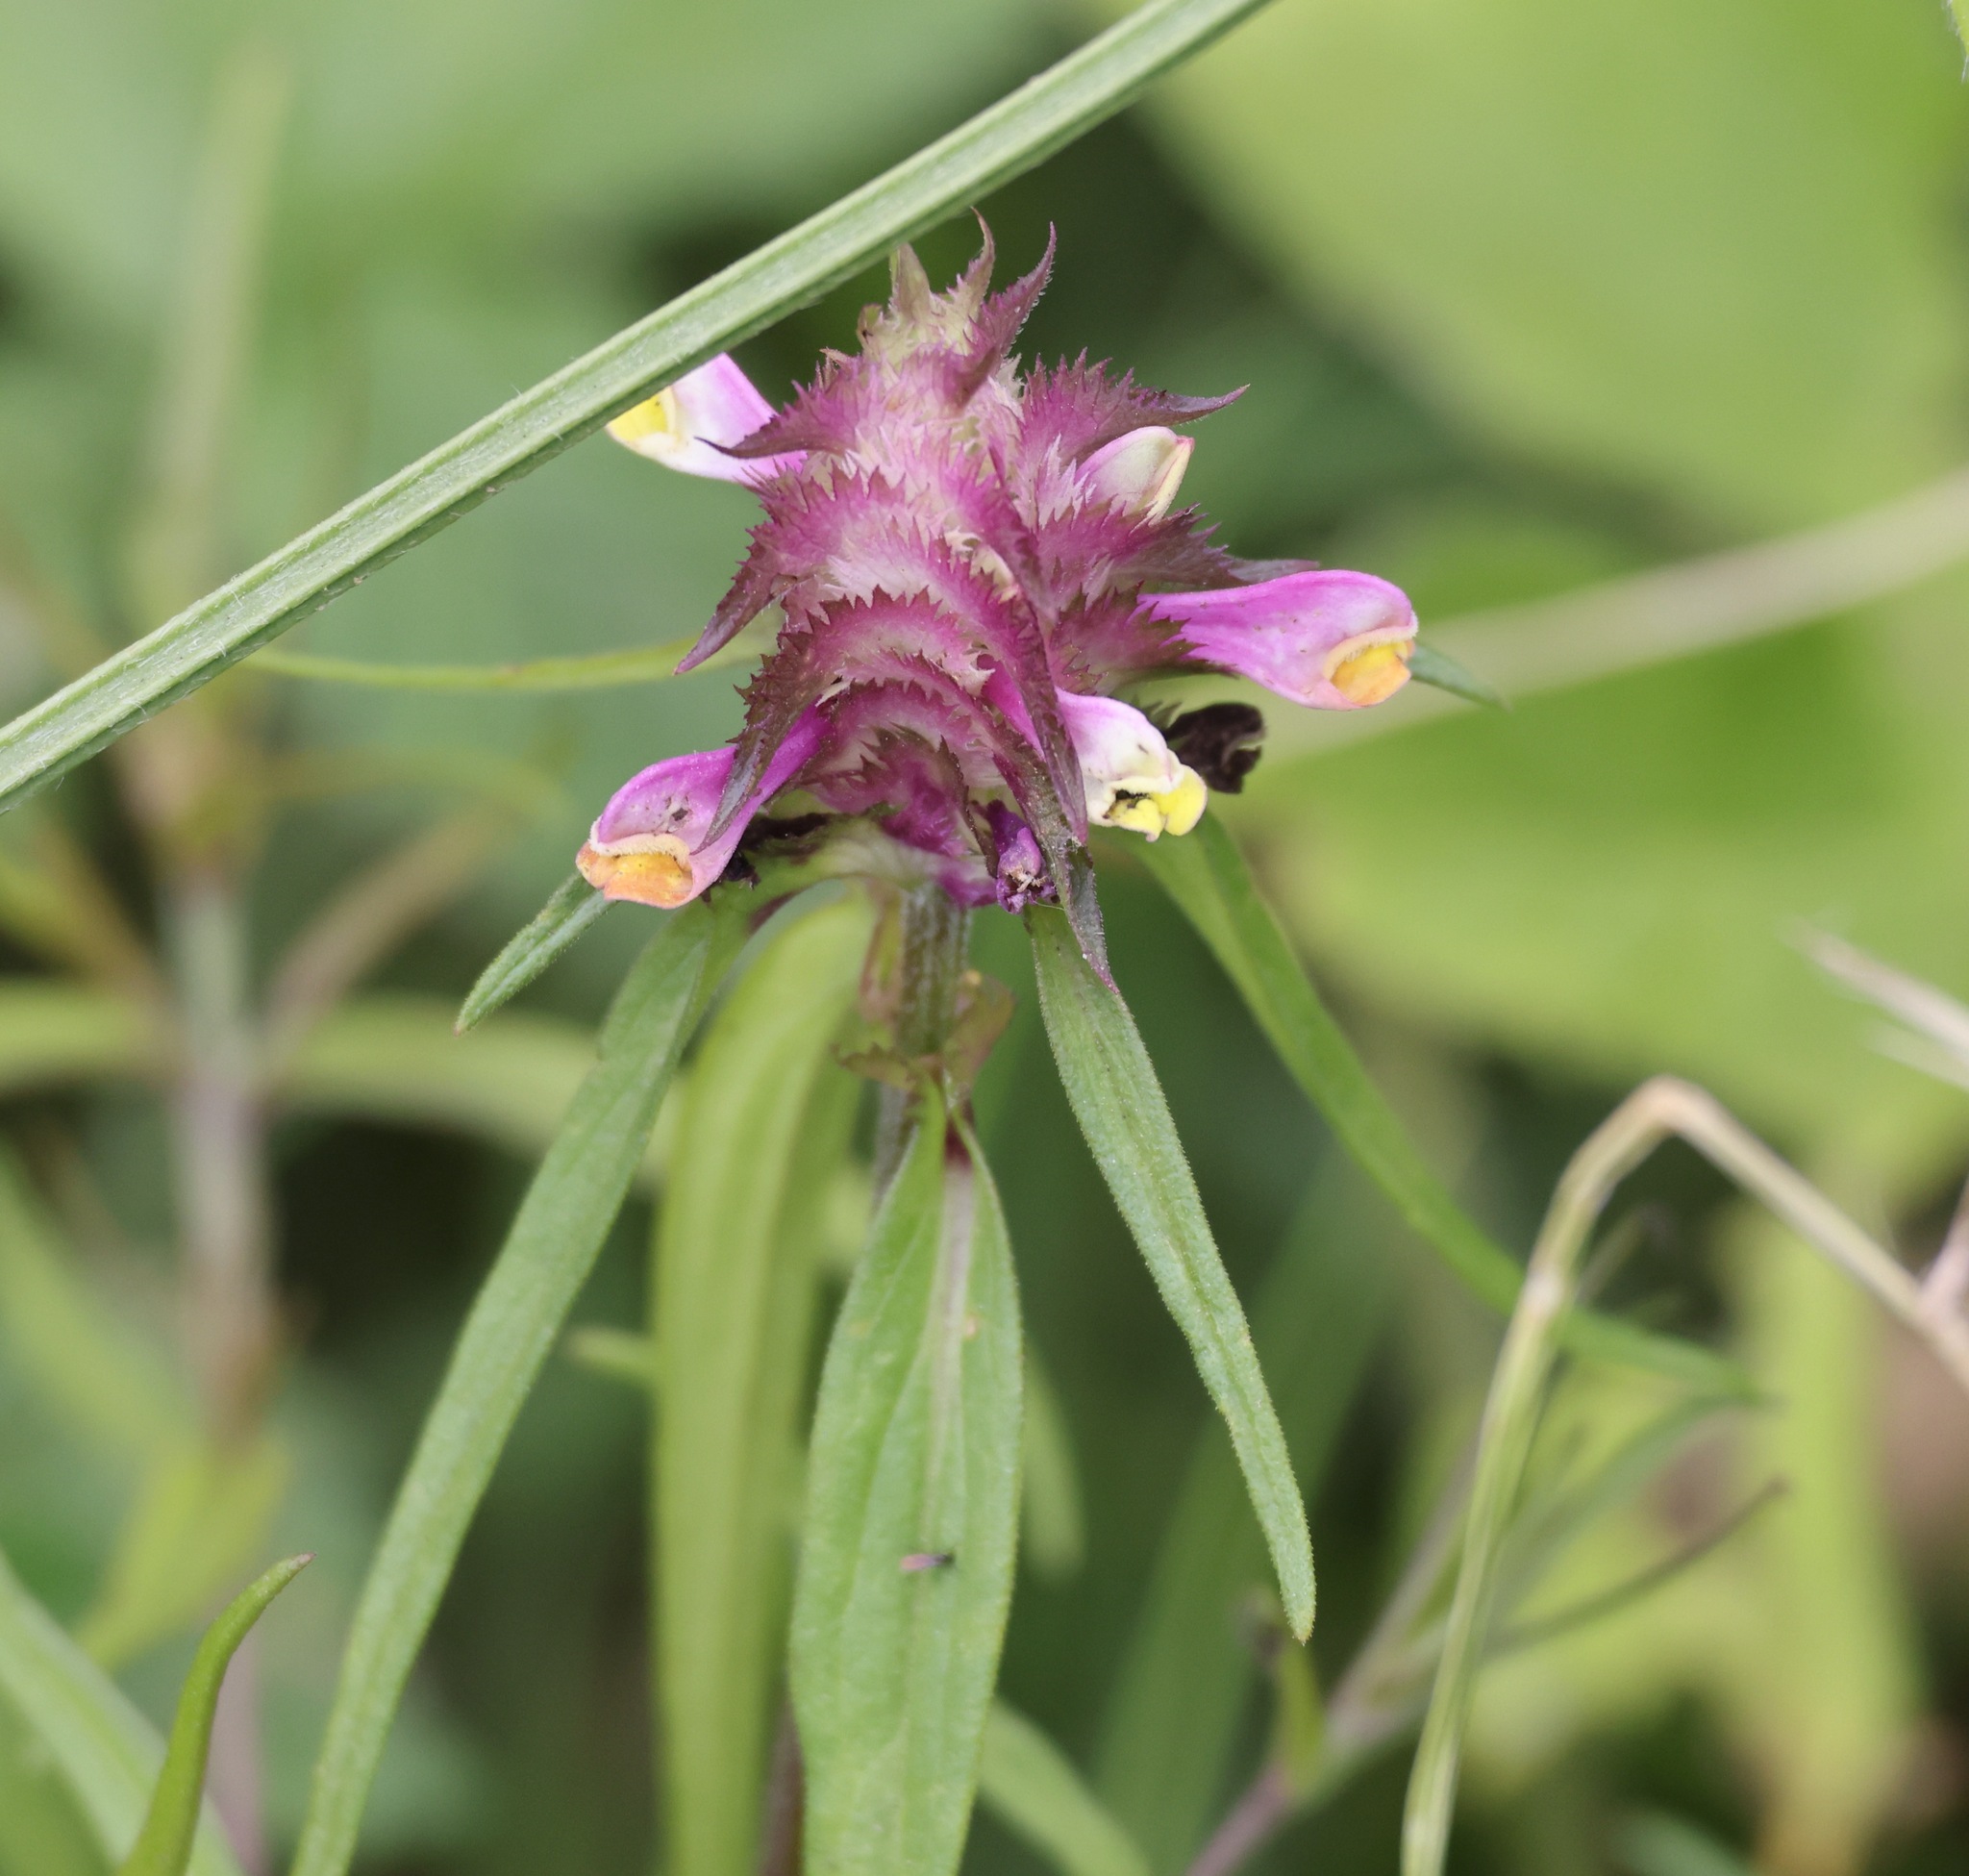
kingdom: Plantae
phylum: Tracheophyta
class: Magnoliopsida
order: Lamiales
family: Orobanchaceae
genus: Melampyrum
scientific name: Melampyrum cristatum
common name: Crested cow-wheat
